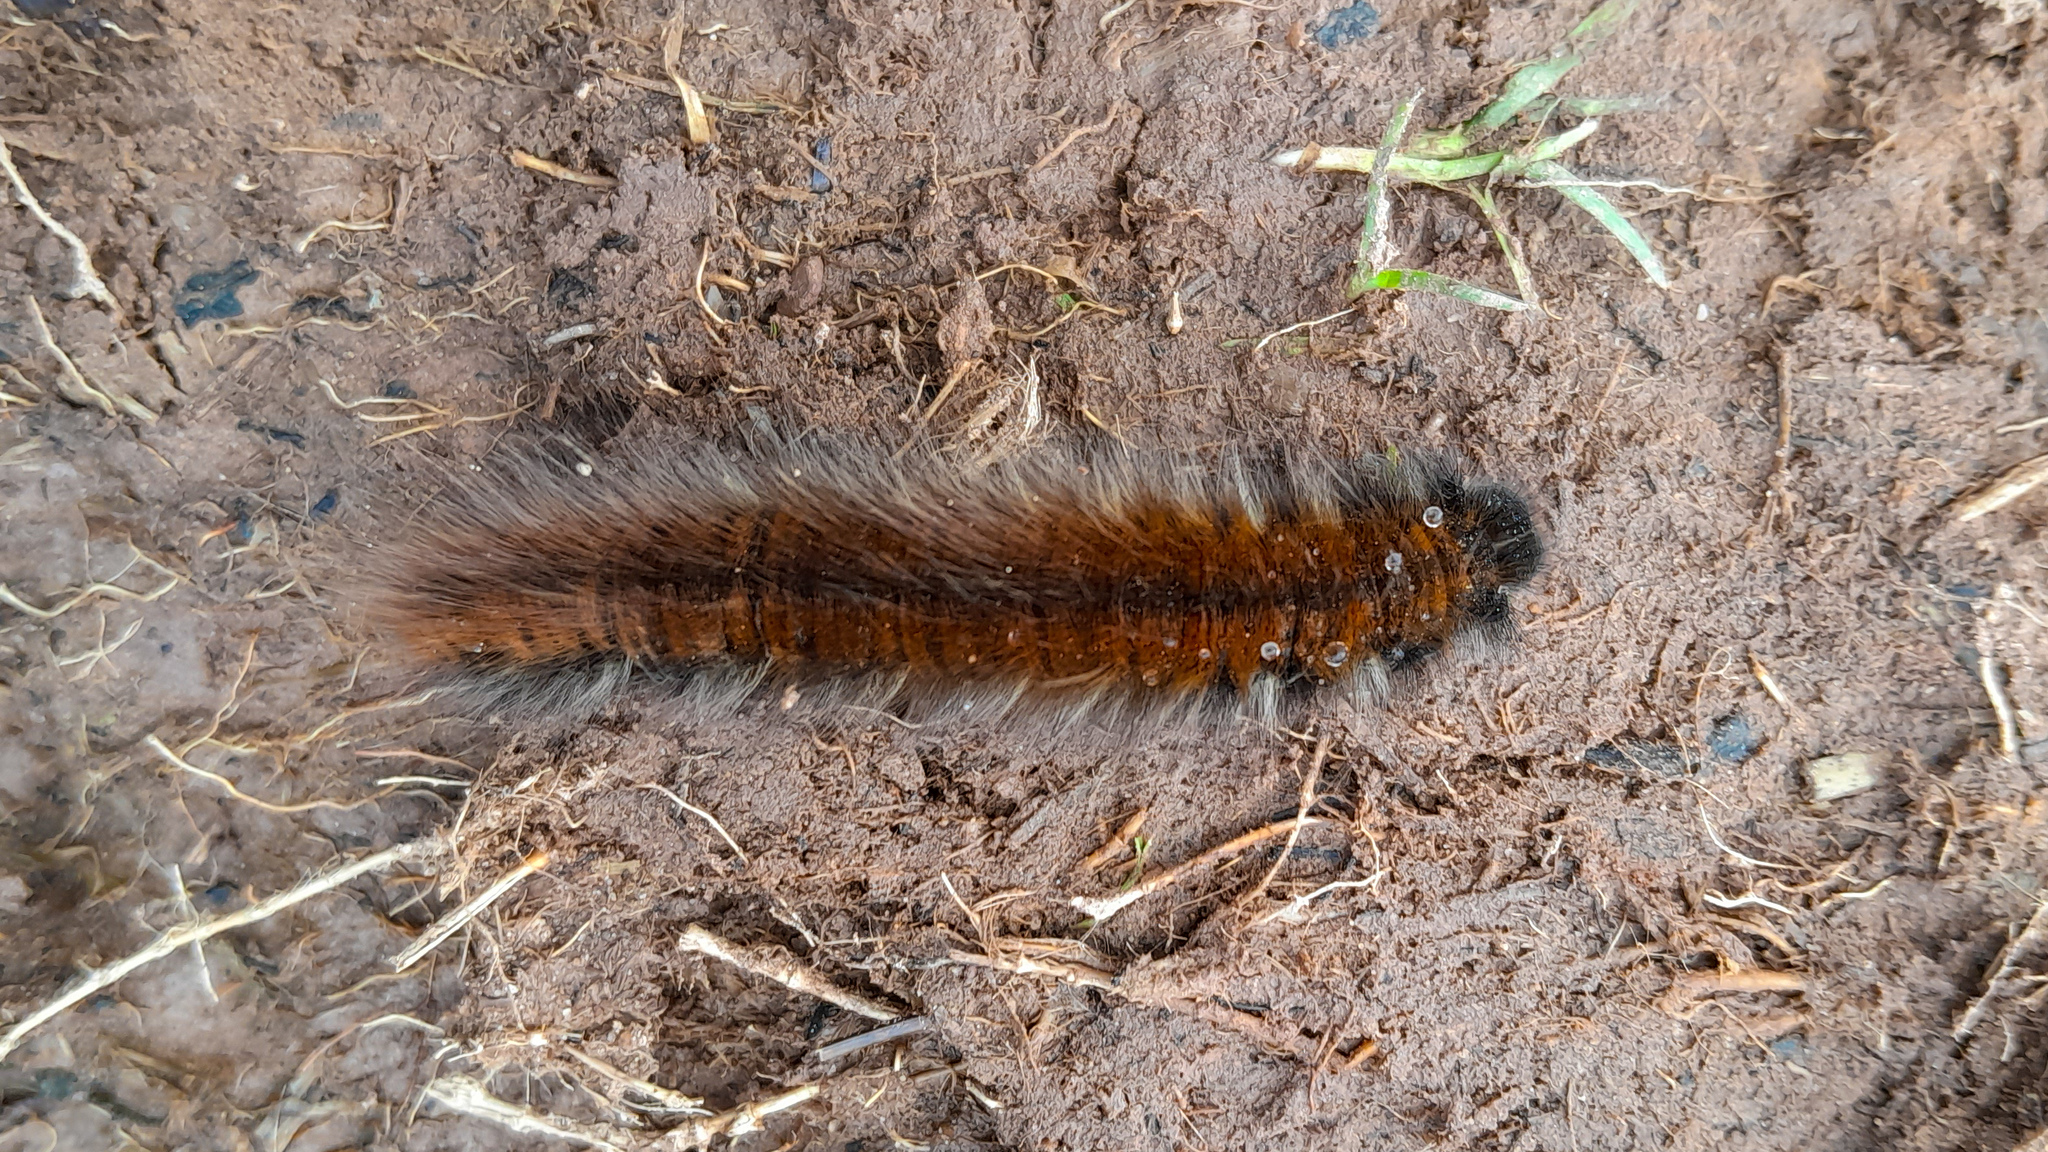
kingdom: Animalia
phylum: Arthropoda
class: Insecta
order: Lepidoptera
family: Lasiocampidae
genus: Macrothylacia
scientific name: Macrothylacia rubi
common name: Fox moth
